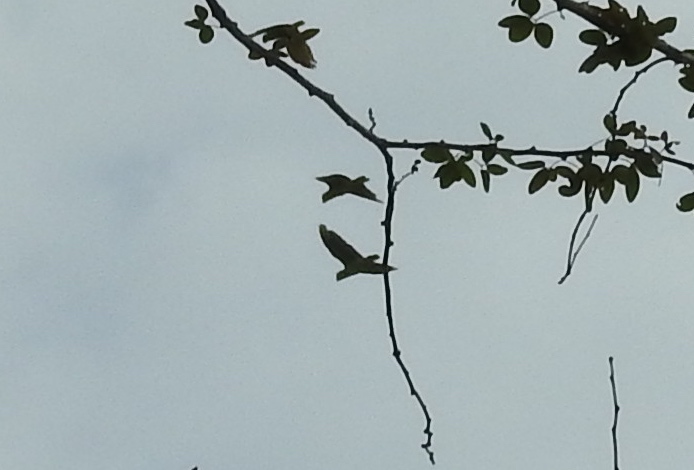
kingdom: Animalia
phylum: Chordata
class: Aves
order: Psittaciformes
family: Psittacidae
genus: Amazona
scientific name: Amazona albifrons
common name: White-fronted amazon
